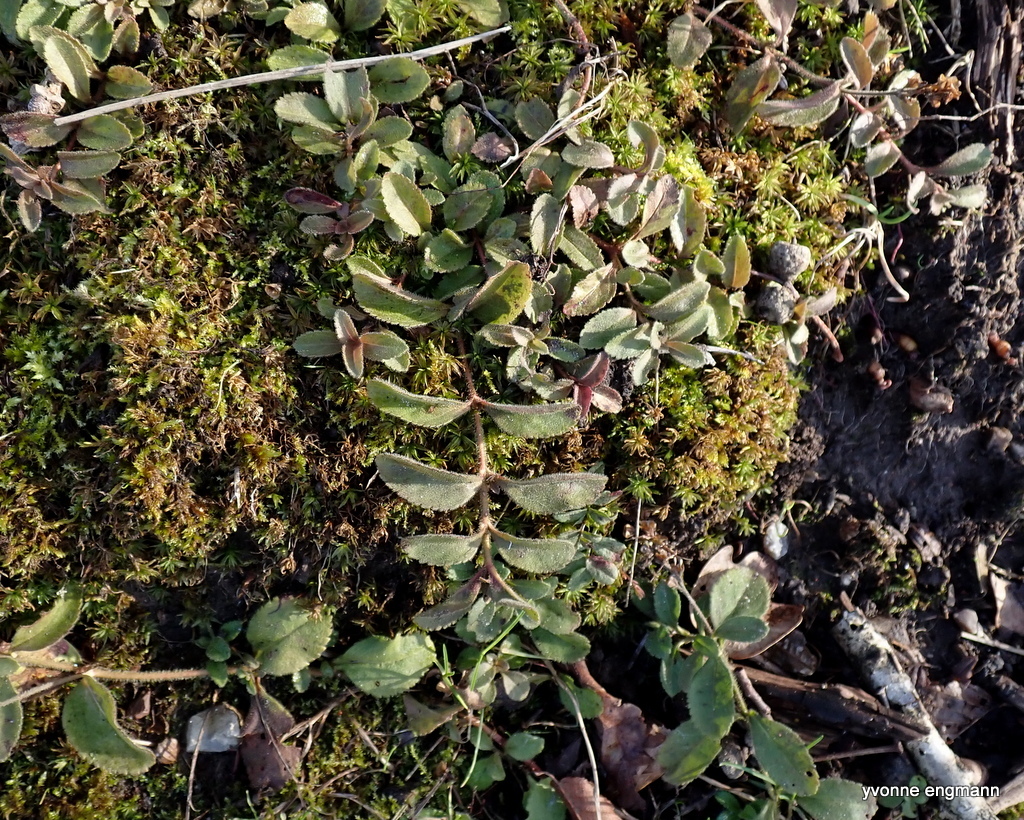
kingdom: Plantae
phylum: Tracheophyta
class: Magnoliopsida
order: Lamiales
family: Plantaginaceae
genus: Veronica
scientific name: Veronica officinalis
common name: Common speedwell
